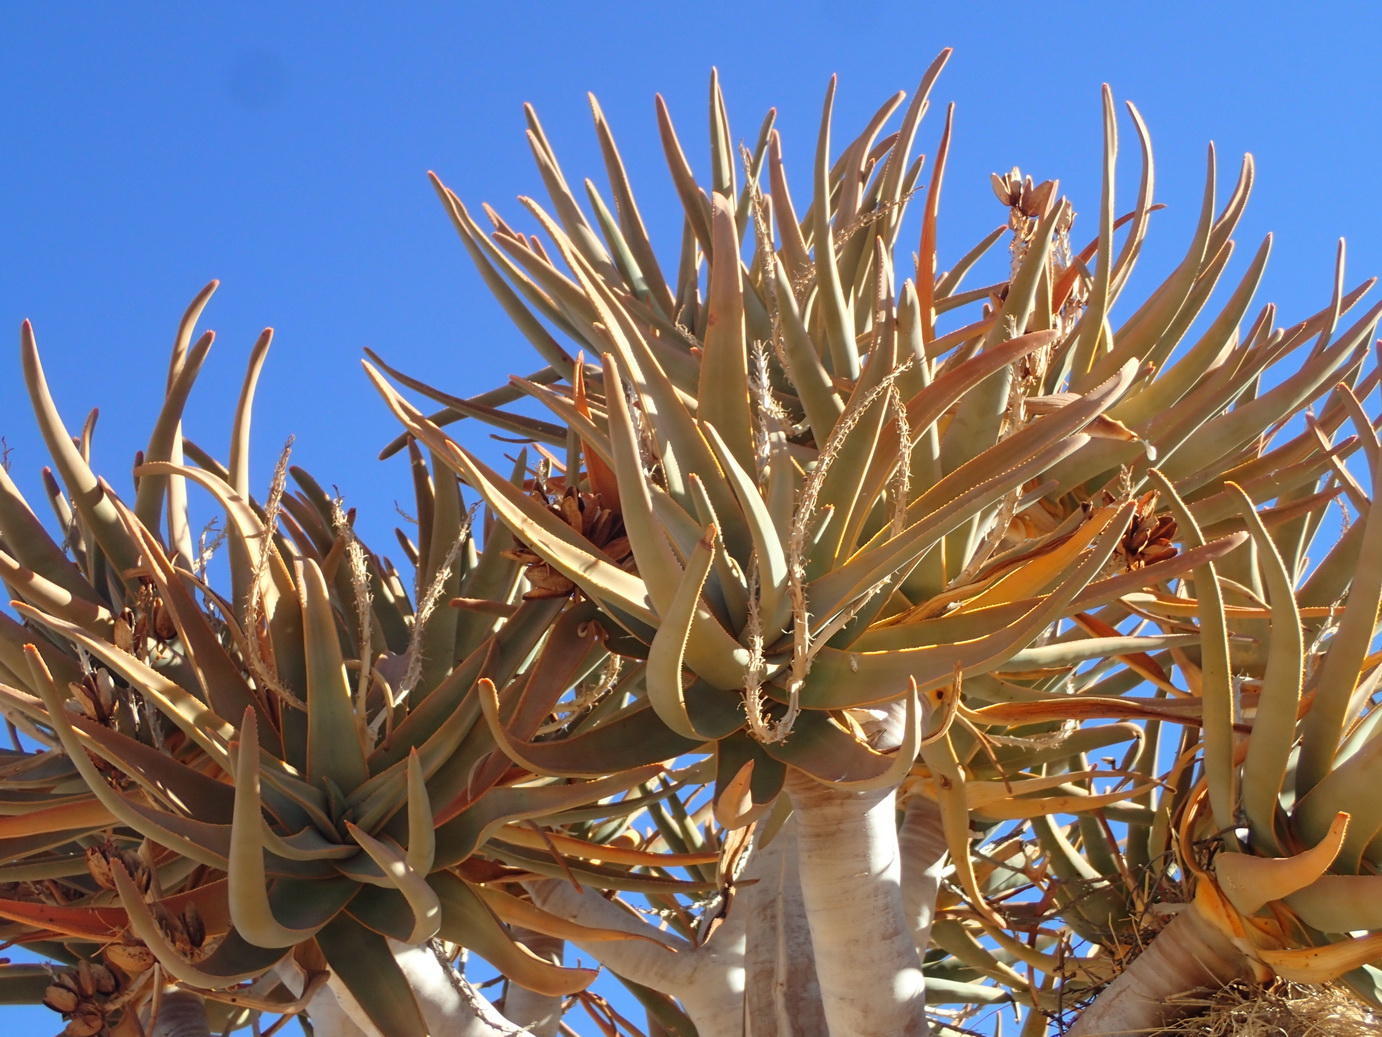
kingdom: Plantae
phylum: Tracheophyta
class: Liliopsida
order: Asparagales
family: Asphodelaceae
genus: Aloidendron
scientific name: Aloidendron dichotomum
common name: Quiver tree
